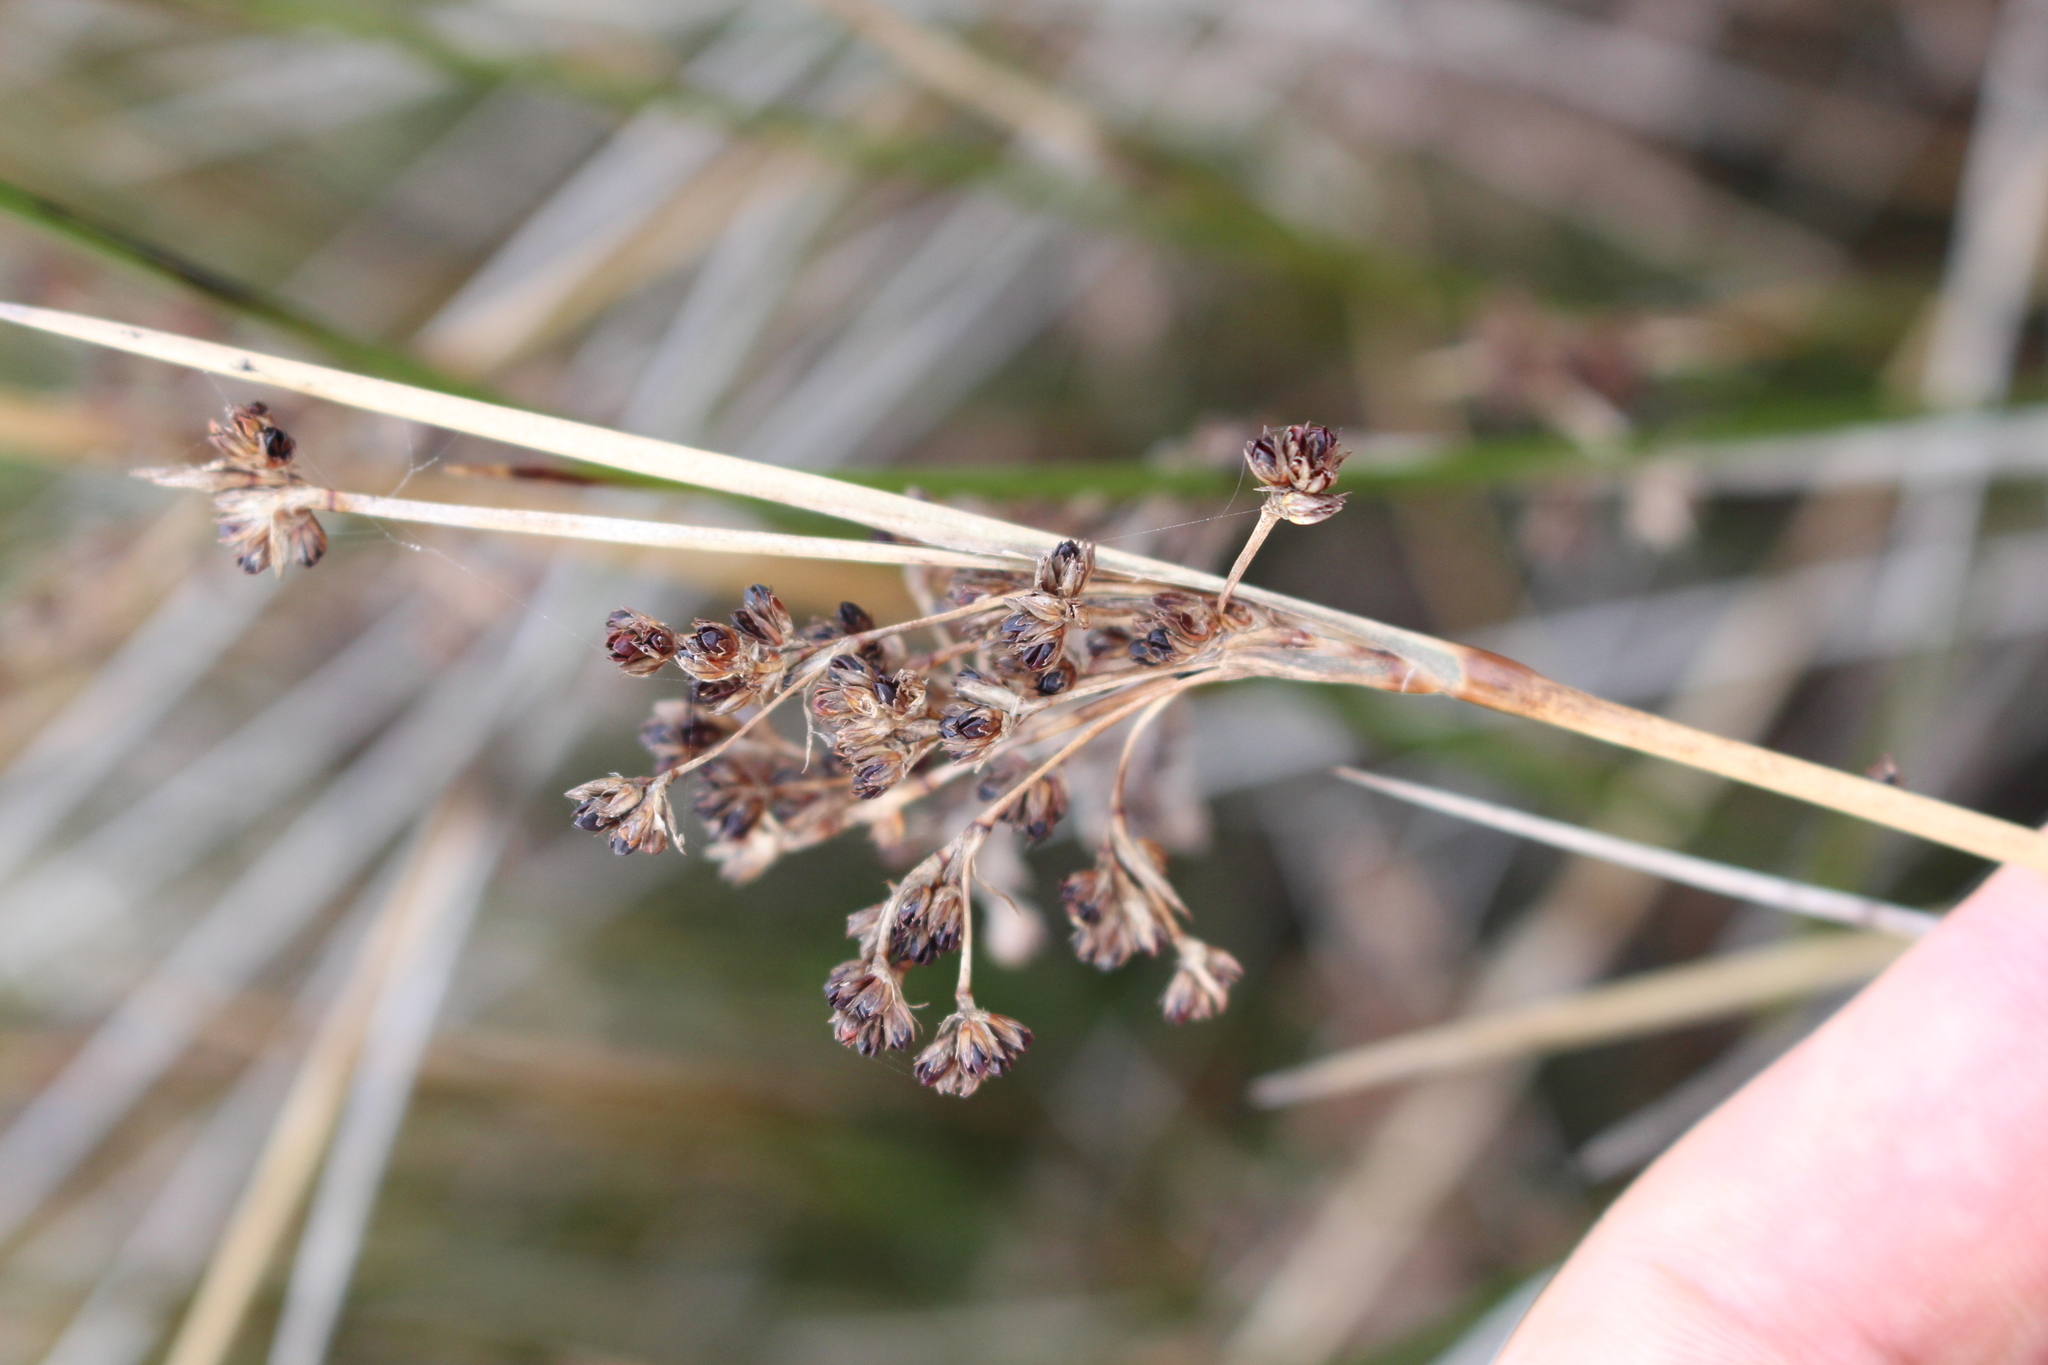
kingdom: Plantae
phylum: Tracheophyta
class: Liliopsida
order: Poales
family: Juncaceae
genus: Juncus
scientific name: Juncus kraussii
